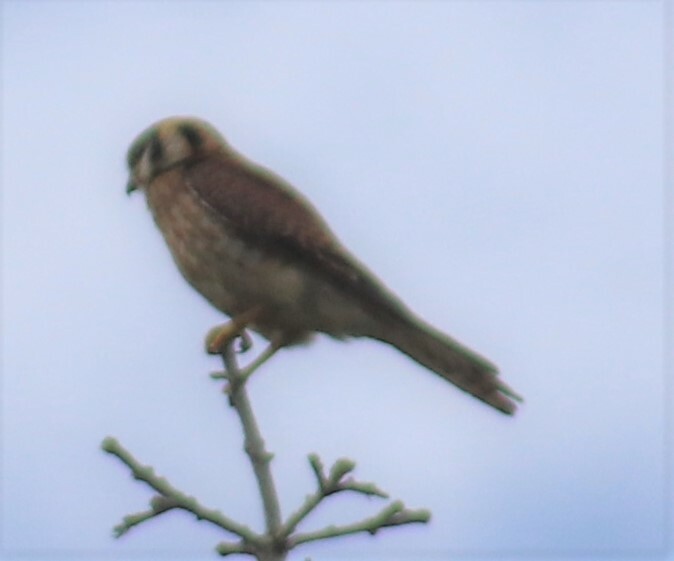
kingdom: Animalia
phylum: Chordata
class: Aves
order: Falconiformes
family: Falconidae
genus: Falco
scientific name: Falco sparverius
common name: American kestrel
